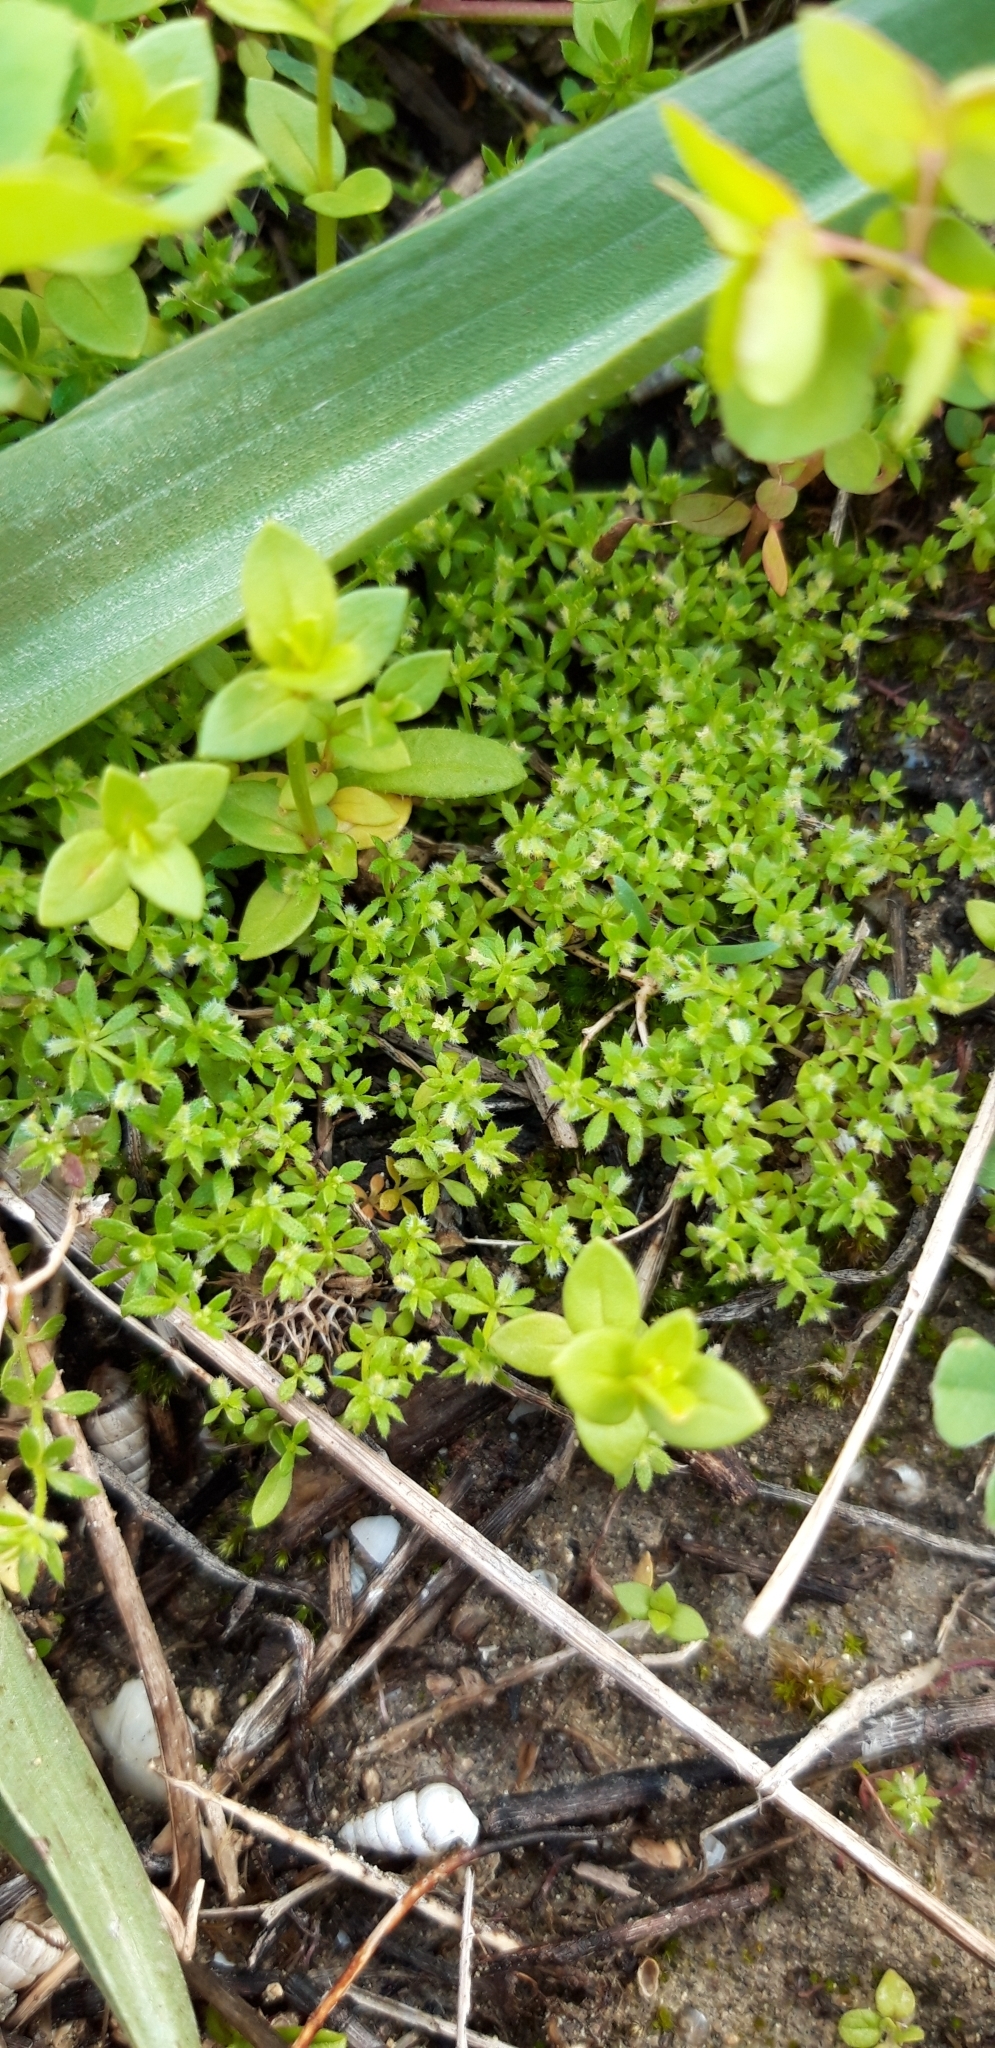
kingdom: Plantae
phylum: Tracheophyta
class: Magnoliopsida
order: Gentianales
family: Rubiaceae
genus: Valantia
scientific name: Valantia hispida
